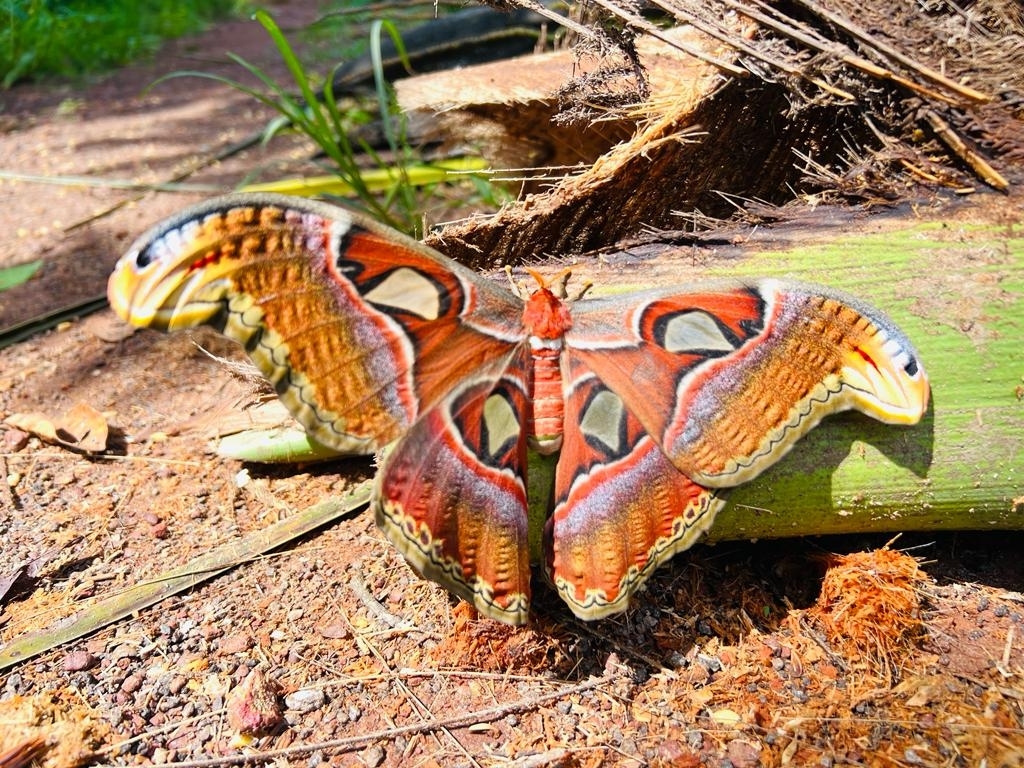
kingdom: Animalia
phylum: Arthropoda
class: Insecta
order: Lepidoptera
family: Saturniidae
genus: Attacus
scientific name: Attacus taprobanis
